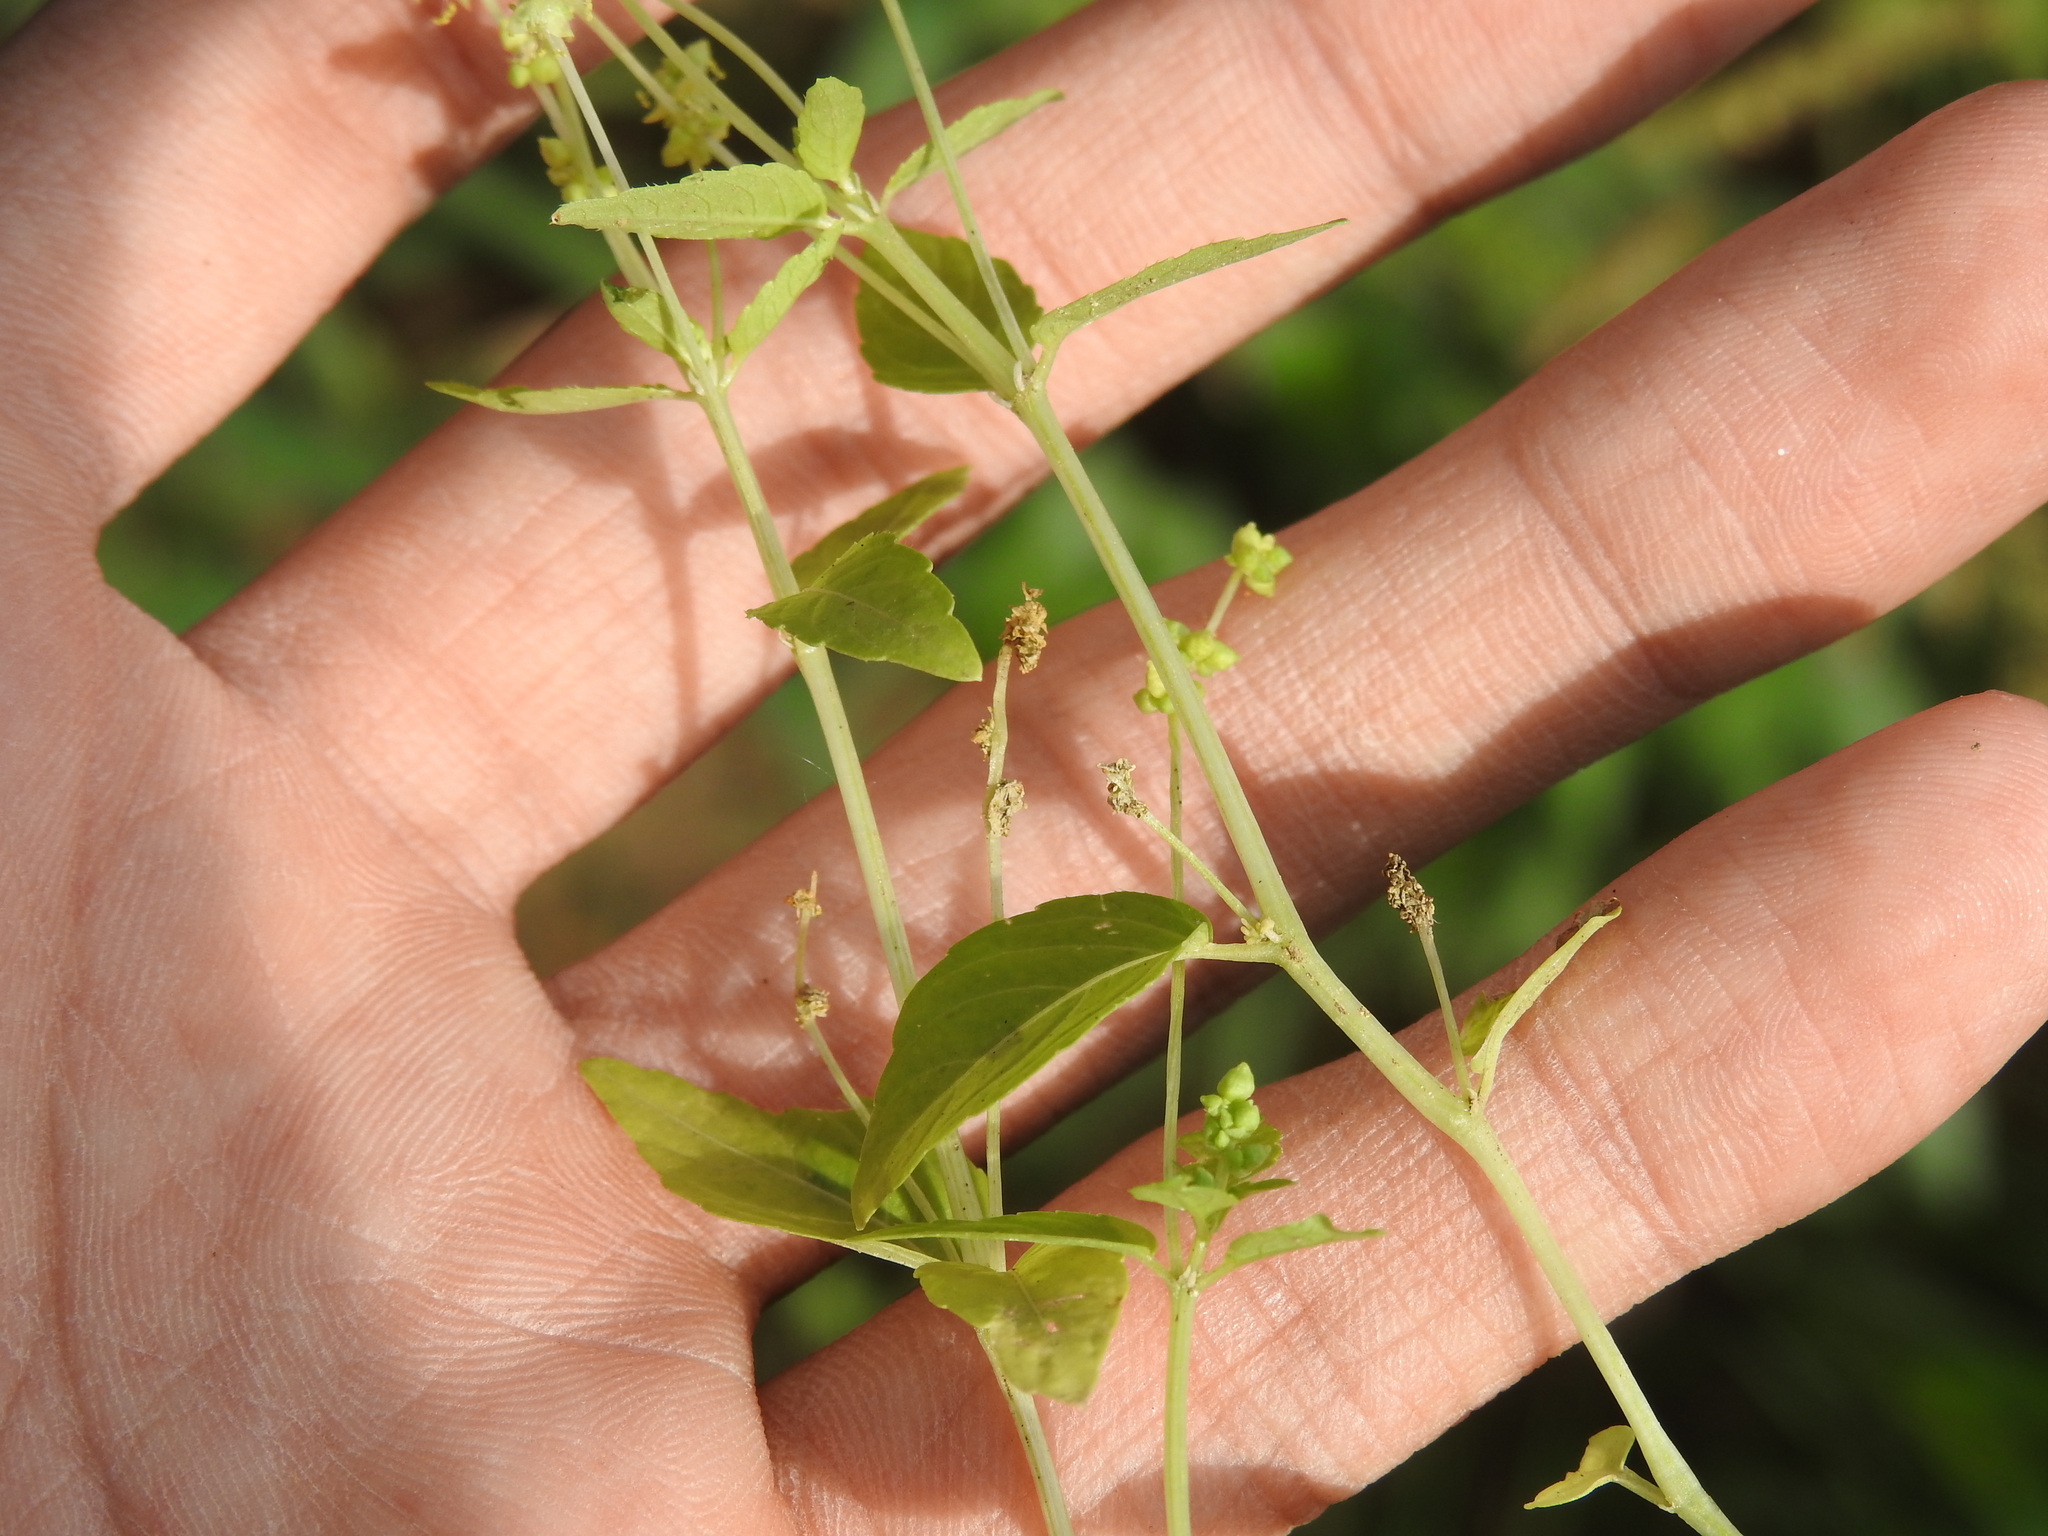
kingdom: Plantae
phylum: Tracheophyta
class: Magnoliopsida
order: Malpighiales
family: Euphorbiaceae
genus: Mercurialis
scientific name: Mercurialis annua
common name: Annual mercury
